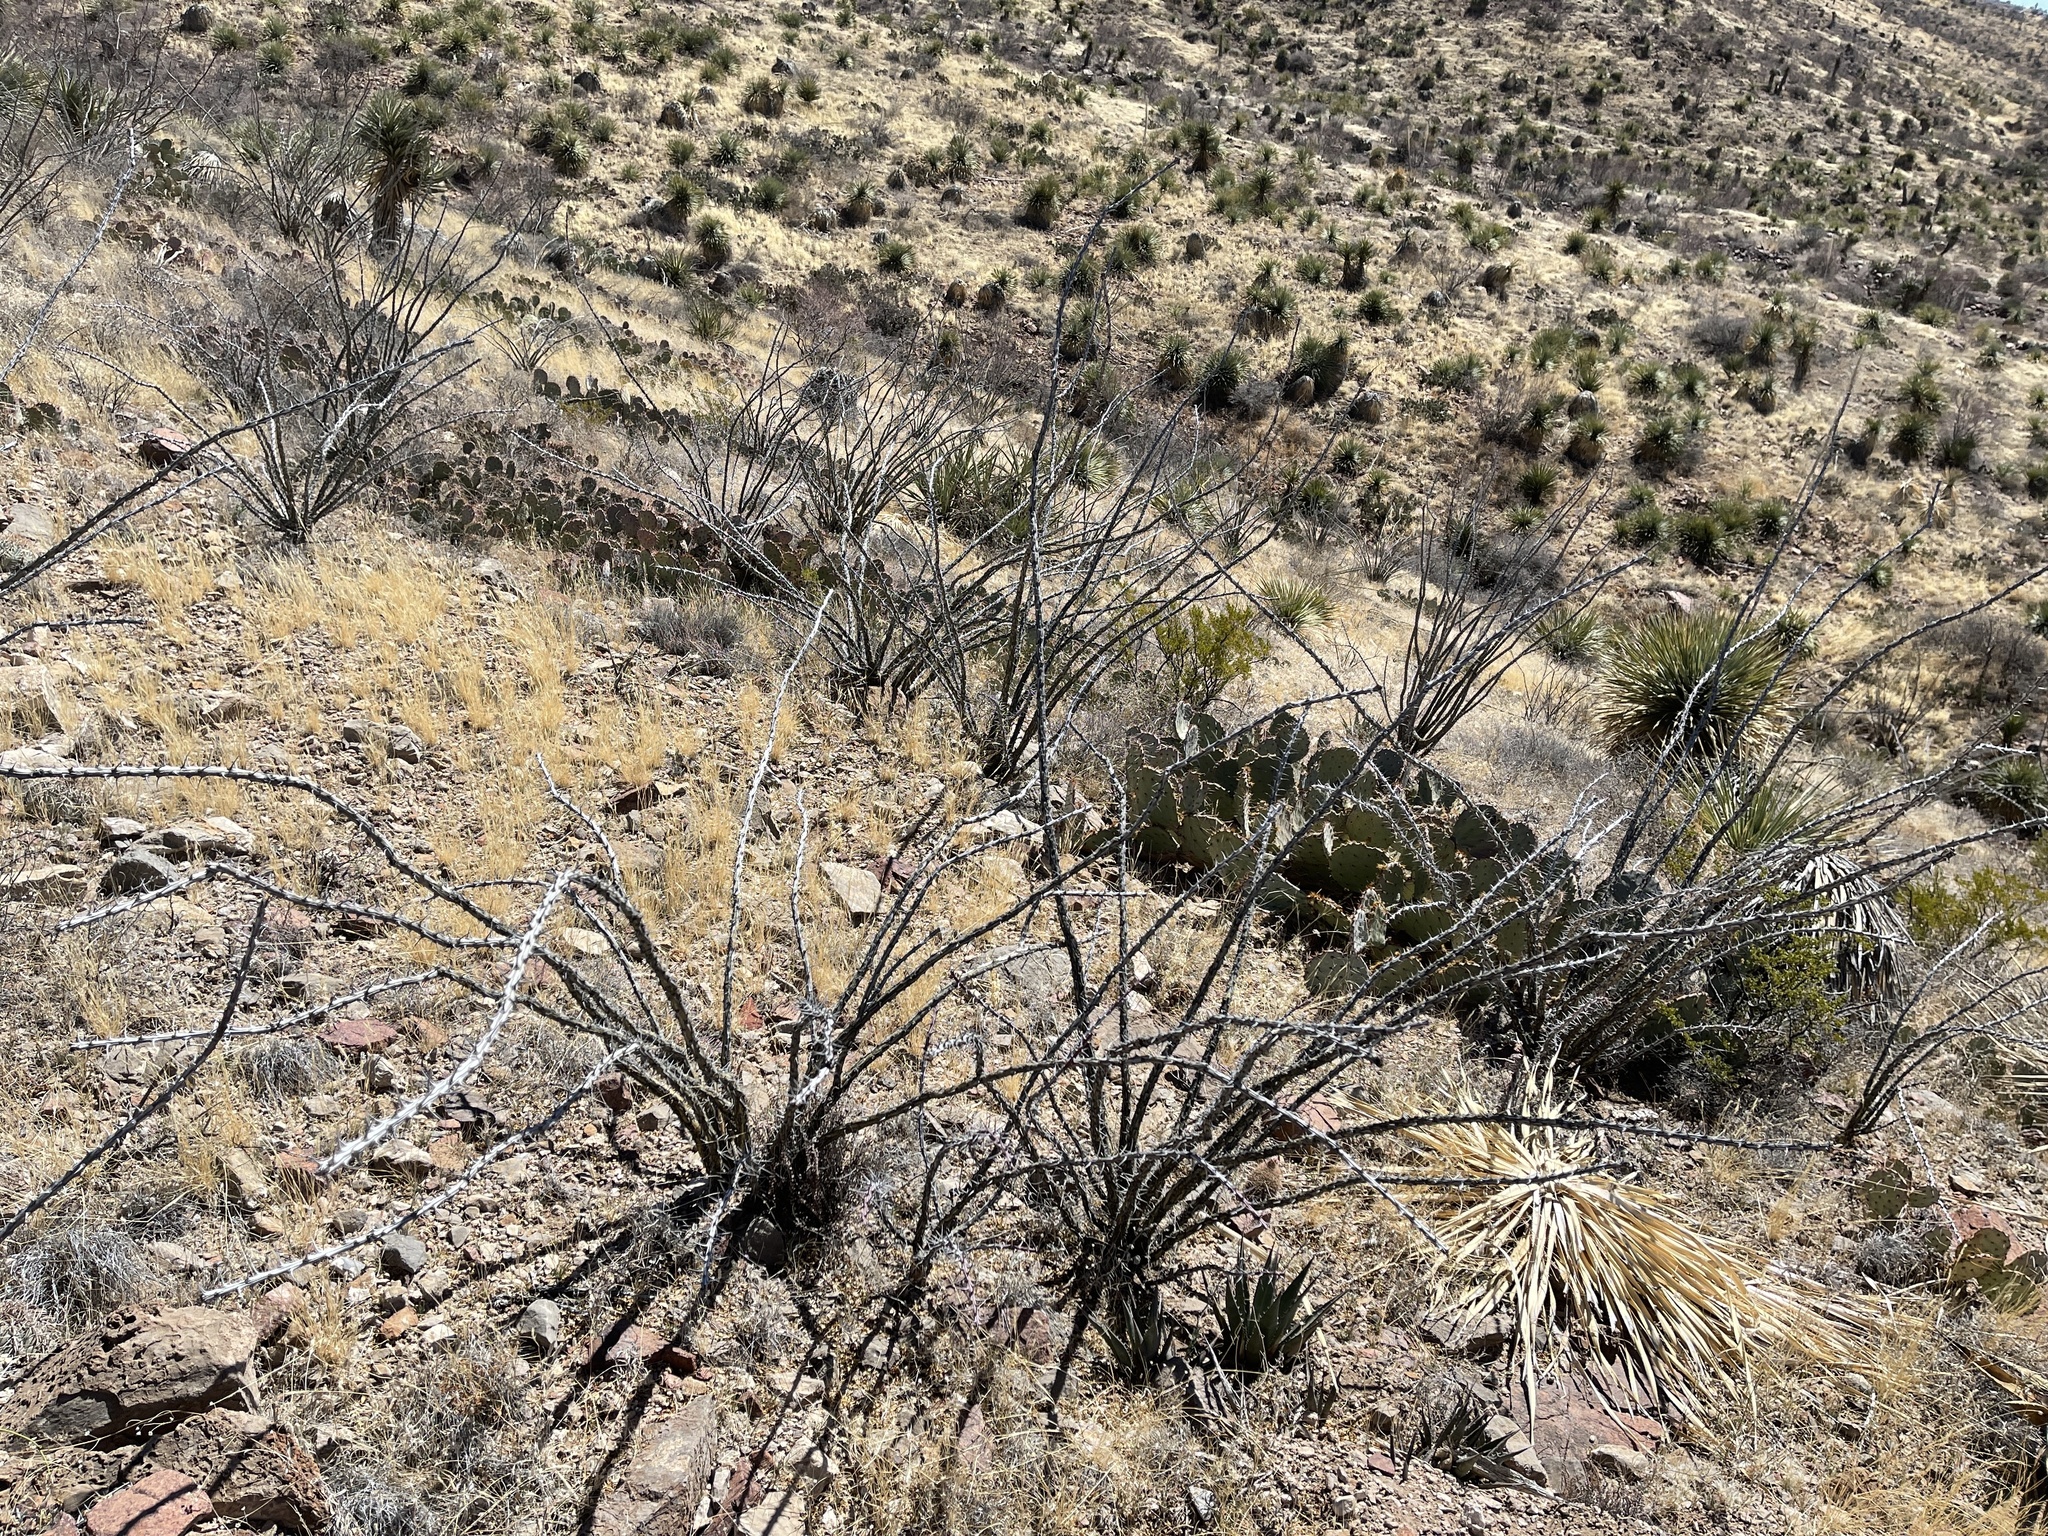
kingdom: Plantae
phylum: Tracheophyta
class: Magnoliopsida
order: Ericales
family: Fouquieriaceae
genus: Fouquieria
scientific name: Fouquieria splendens
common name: Vine-cactus
